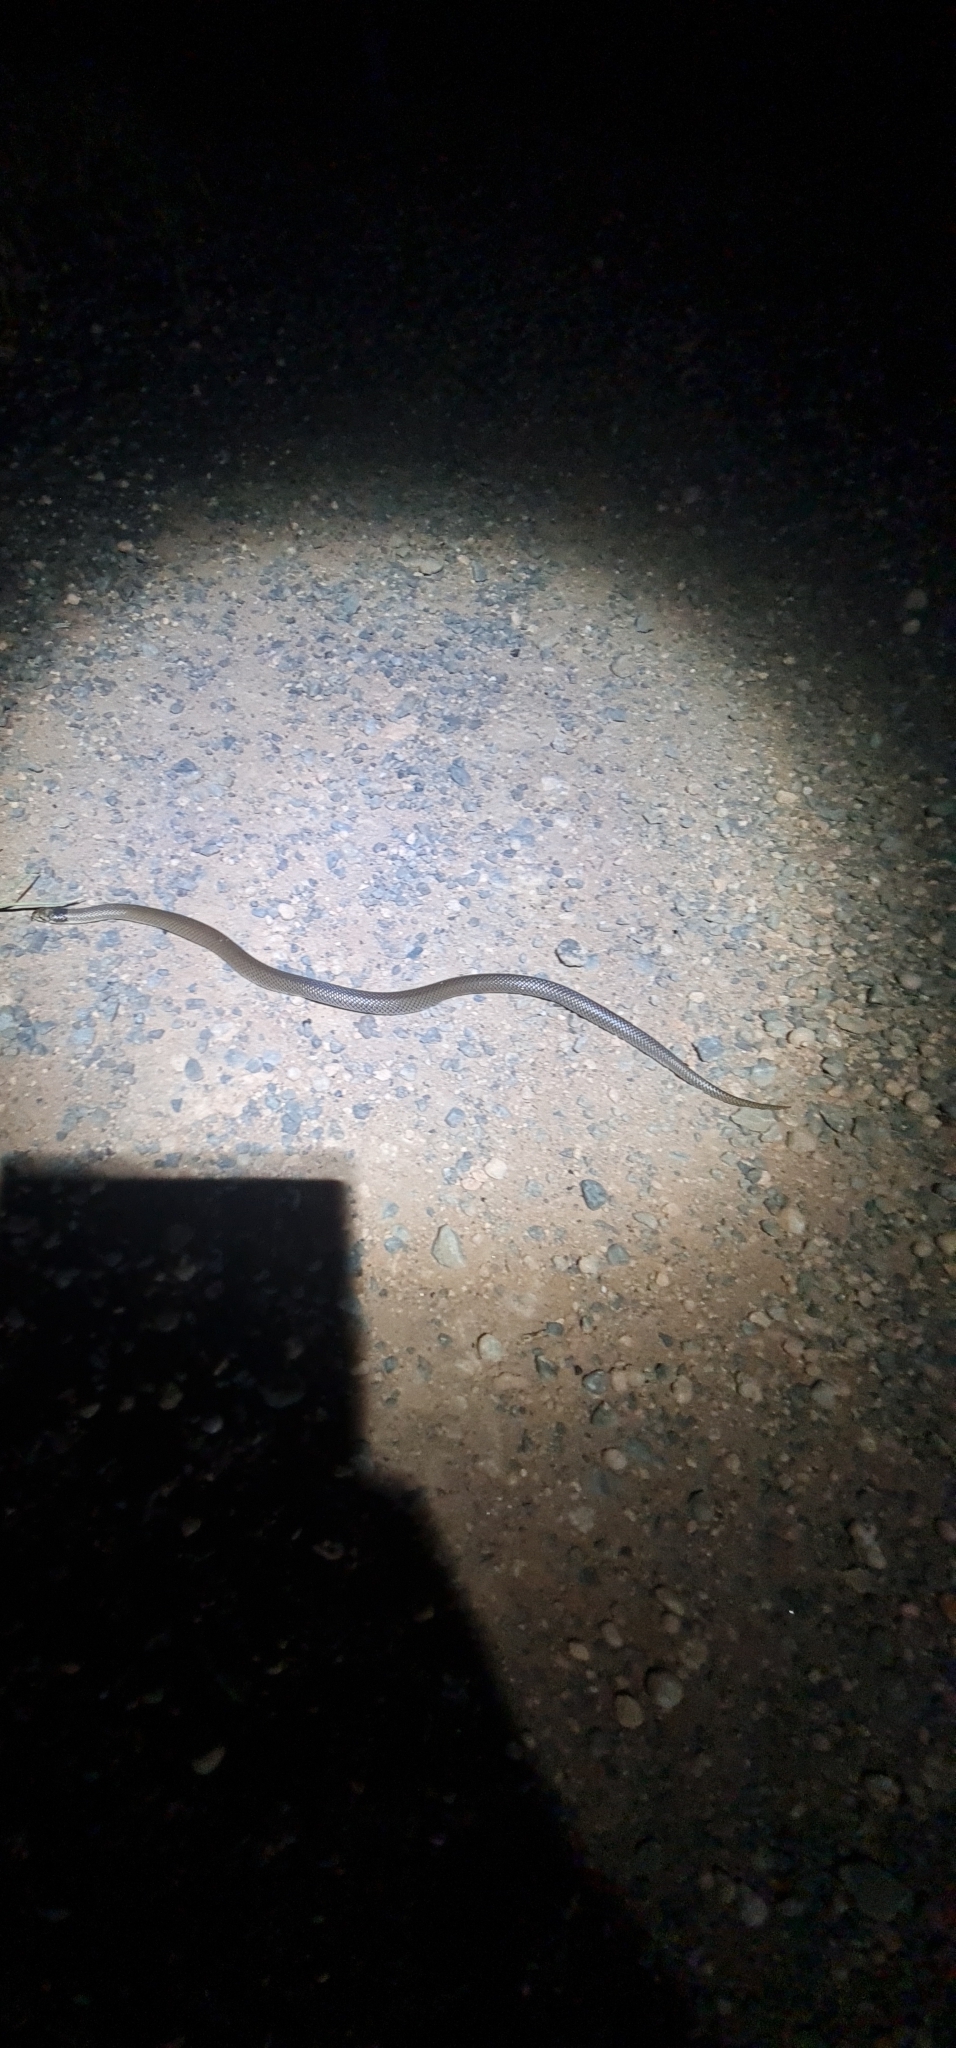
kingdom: Animalia
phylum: Chordata
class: Squamata
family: Elapidae
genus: Suta
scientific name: Suta suta
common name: Curl snake
